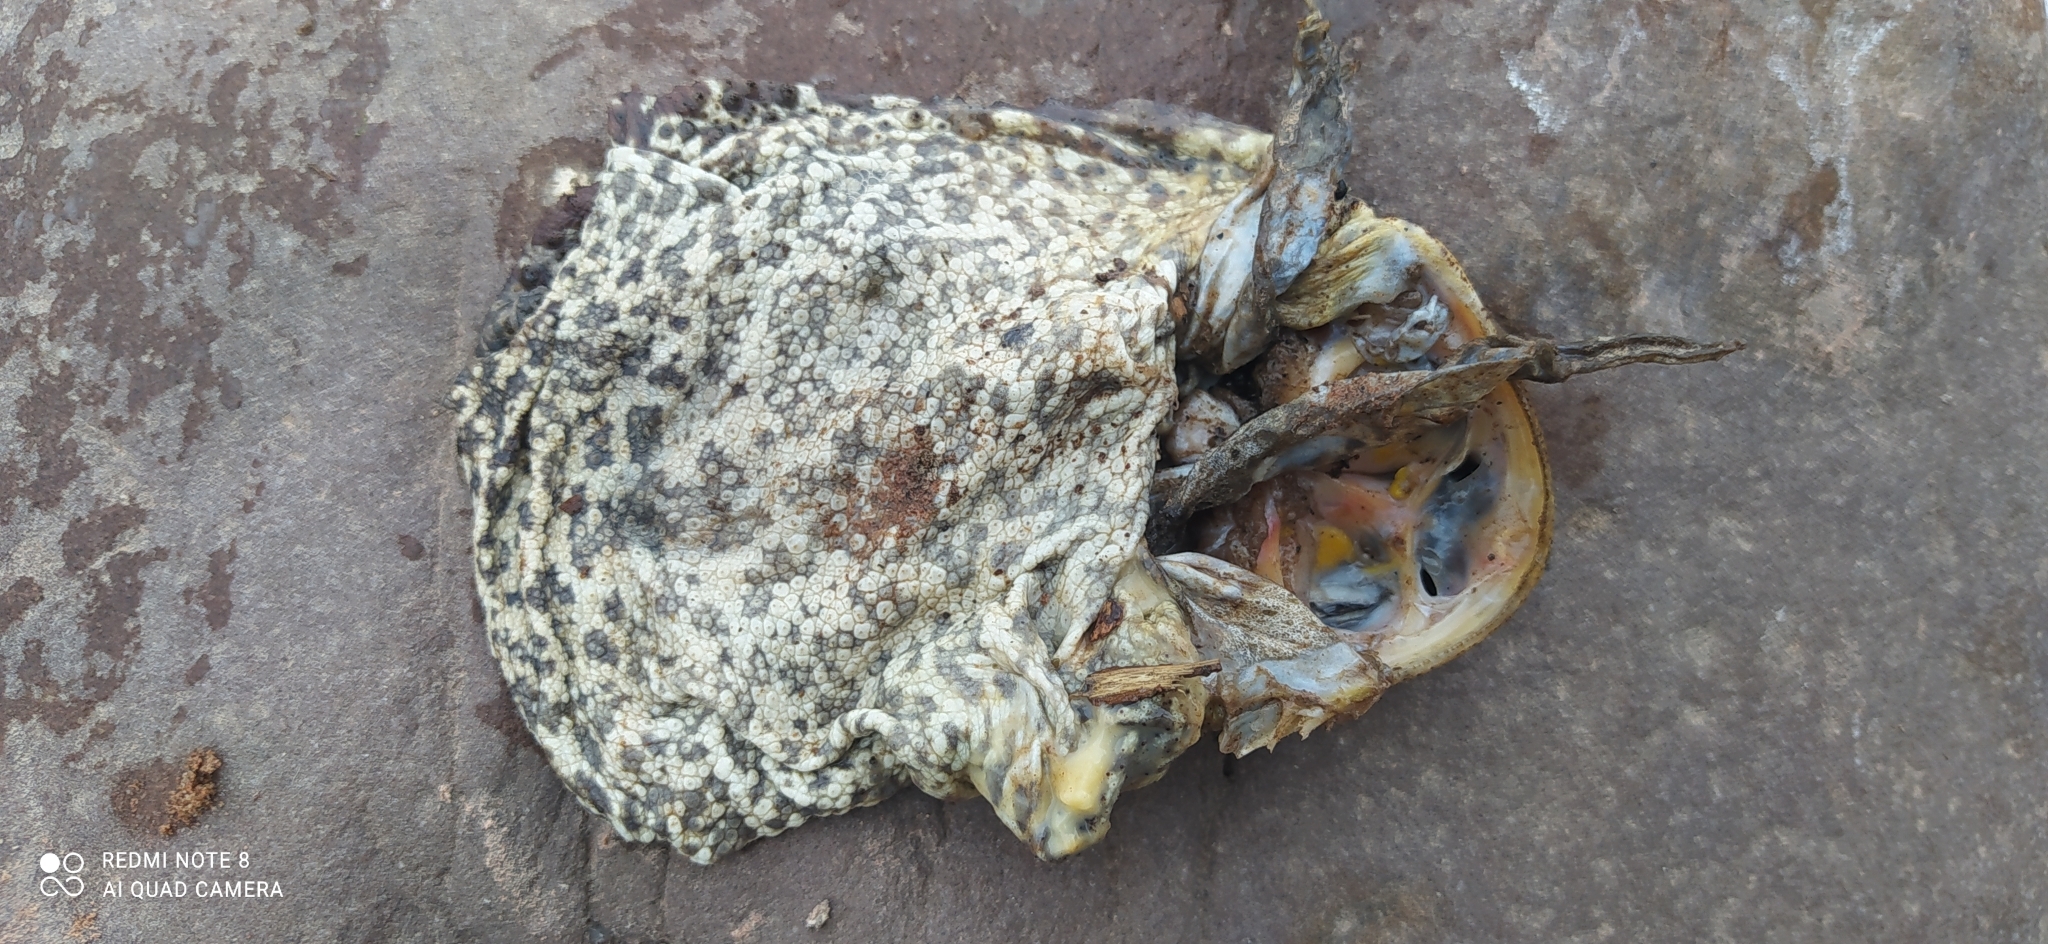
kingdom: Animalia
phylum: Chordata
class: Amphibia
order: Anura
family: Bufonidae
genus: Rhinella
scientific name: Rhinella diptycha
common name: Cope's toad
